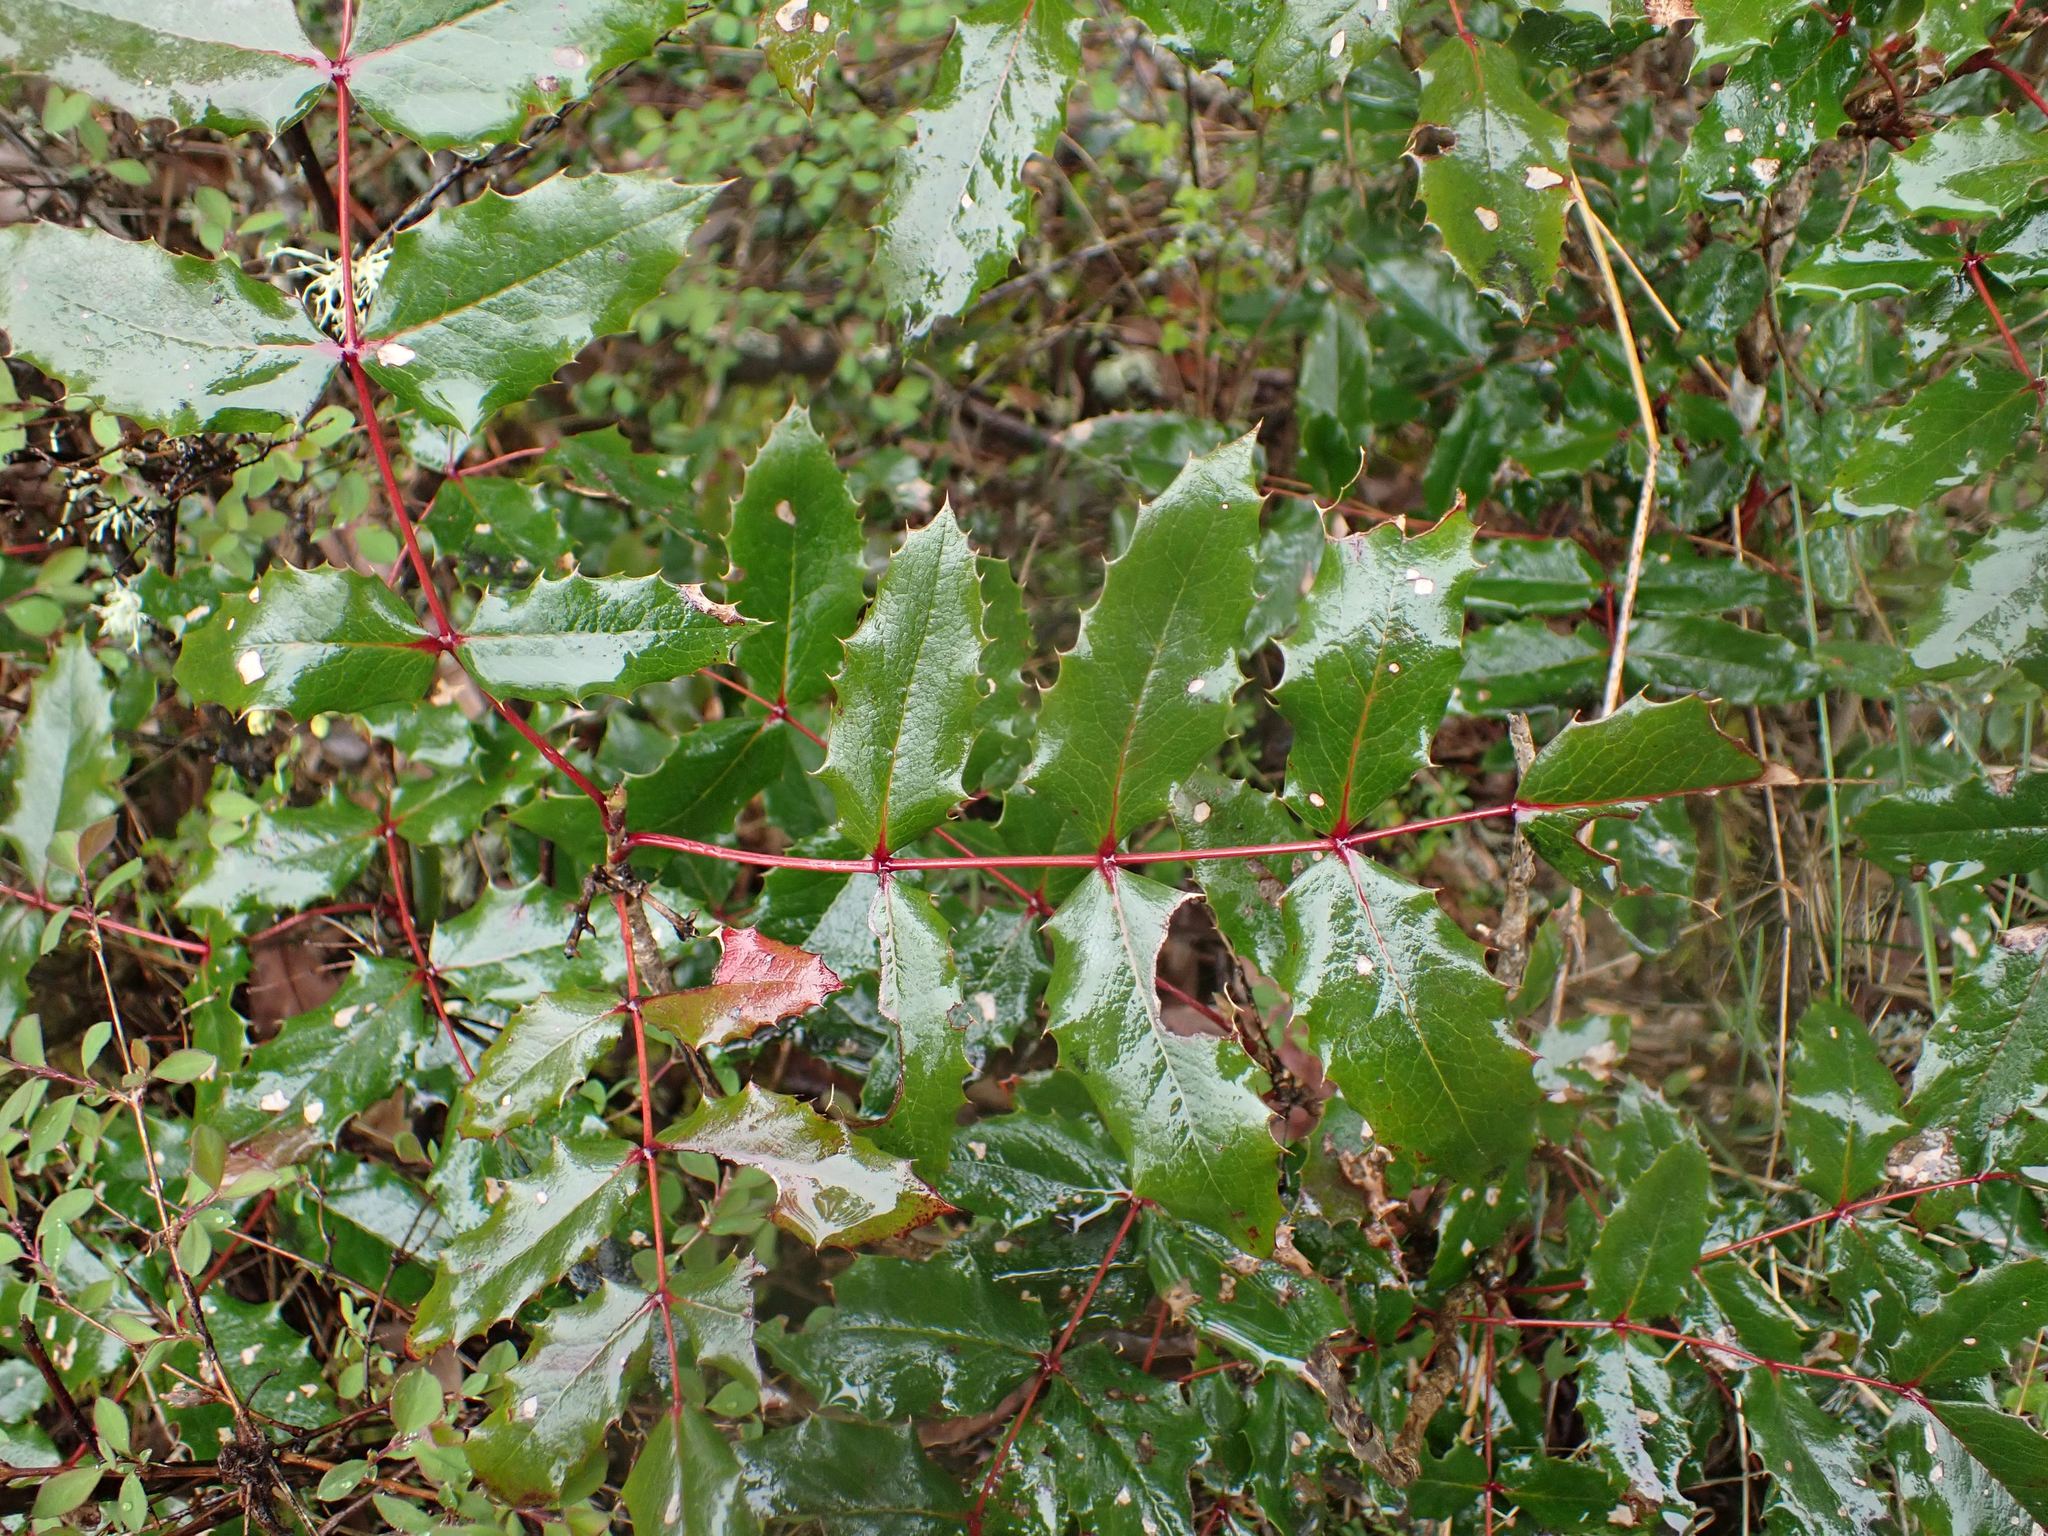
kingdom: Plantae
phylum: Tracheophyta
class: Magnoliopsida
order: Ranunculales
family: Berberidaceae
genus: Mahonia
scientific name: Mahonia aquifolium
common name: Oregon-grape
